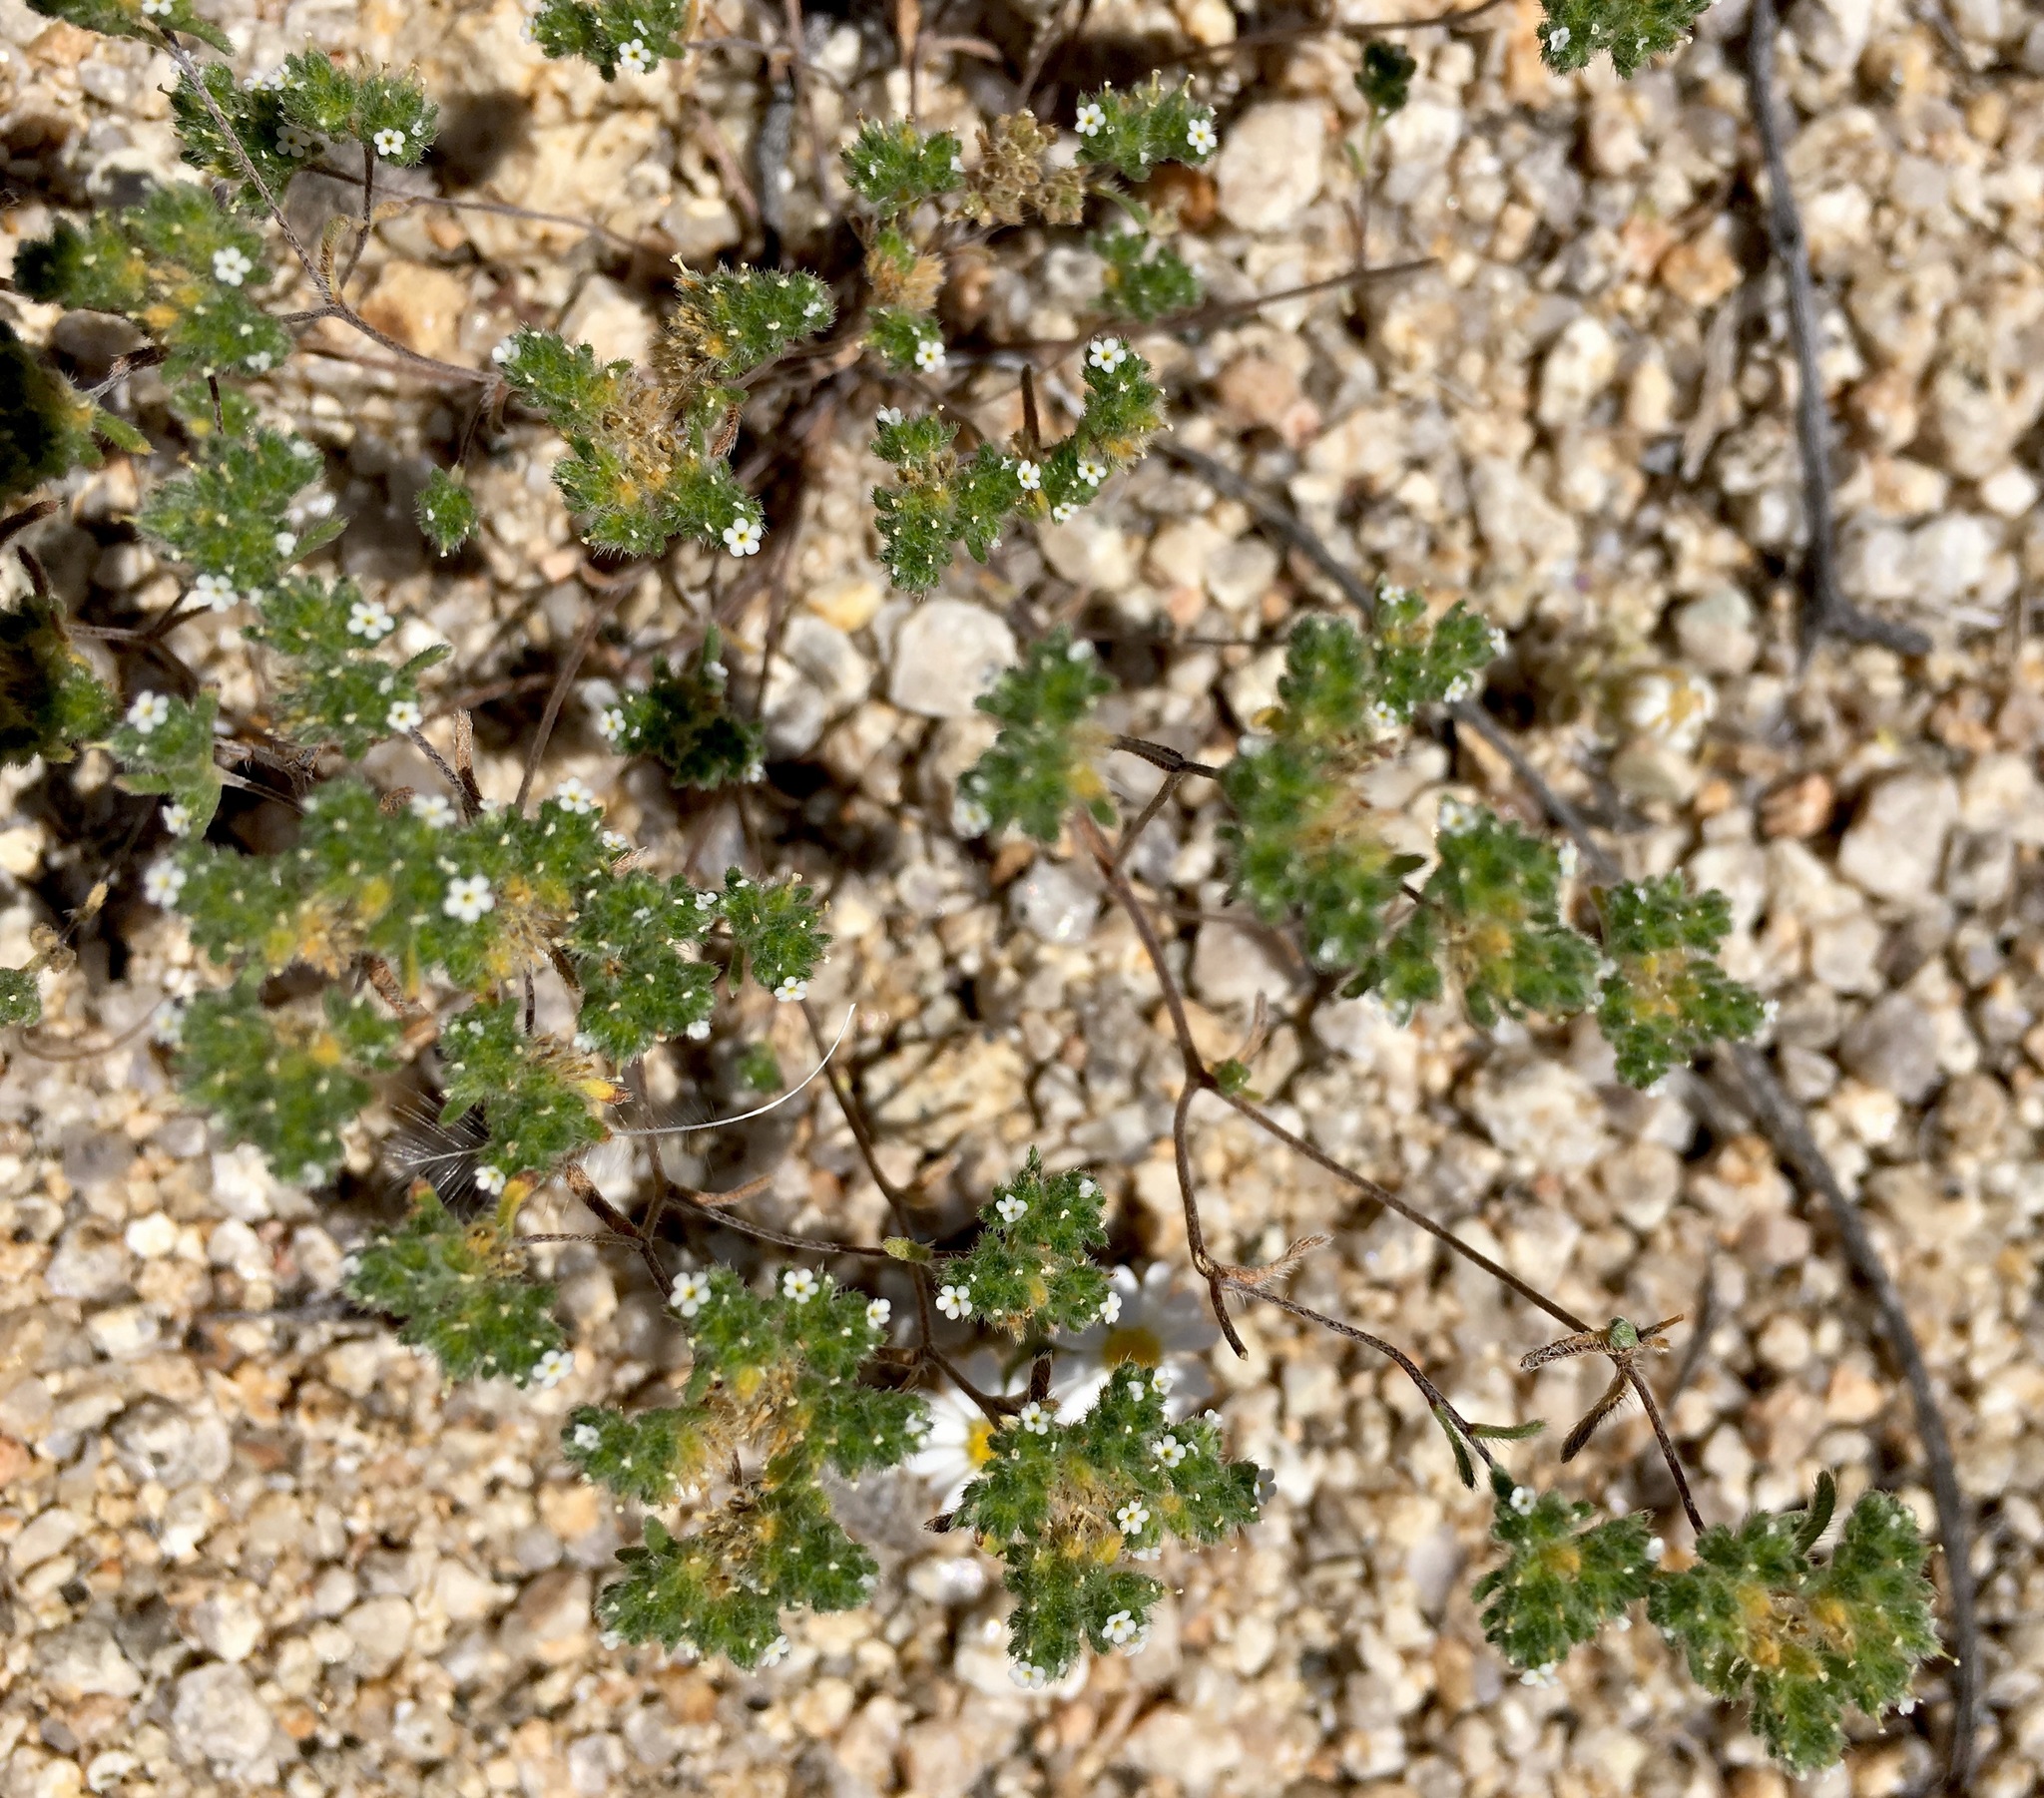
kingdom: Plantae
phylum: Tracheophyta
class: Magnoliopsida
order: Boraginales
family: Boraginaceae
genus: Eremocarya
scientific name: Eremocarya micrantha
